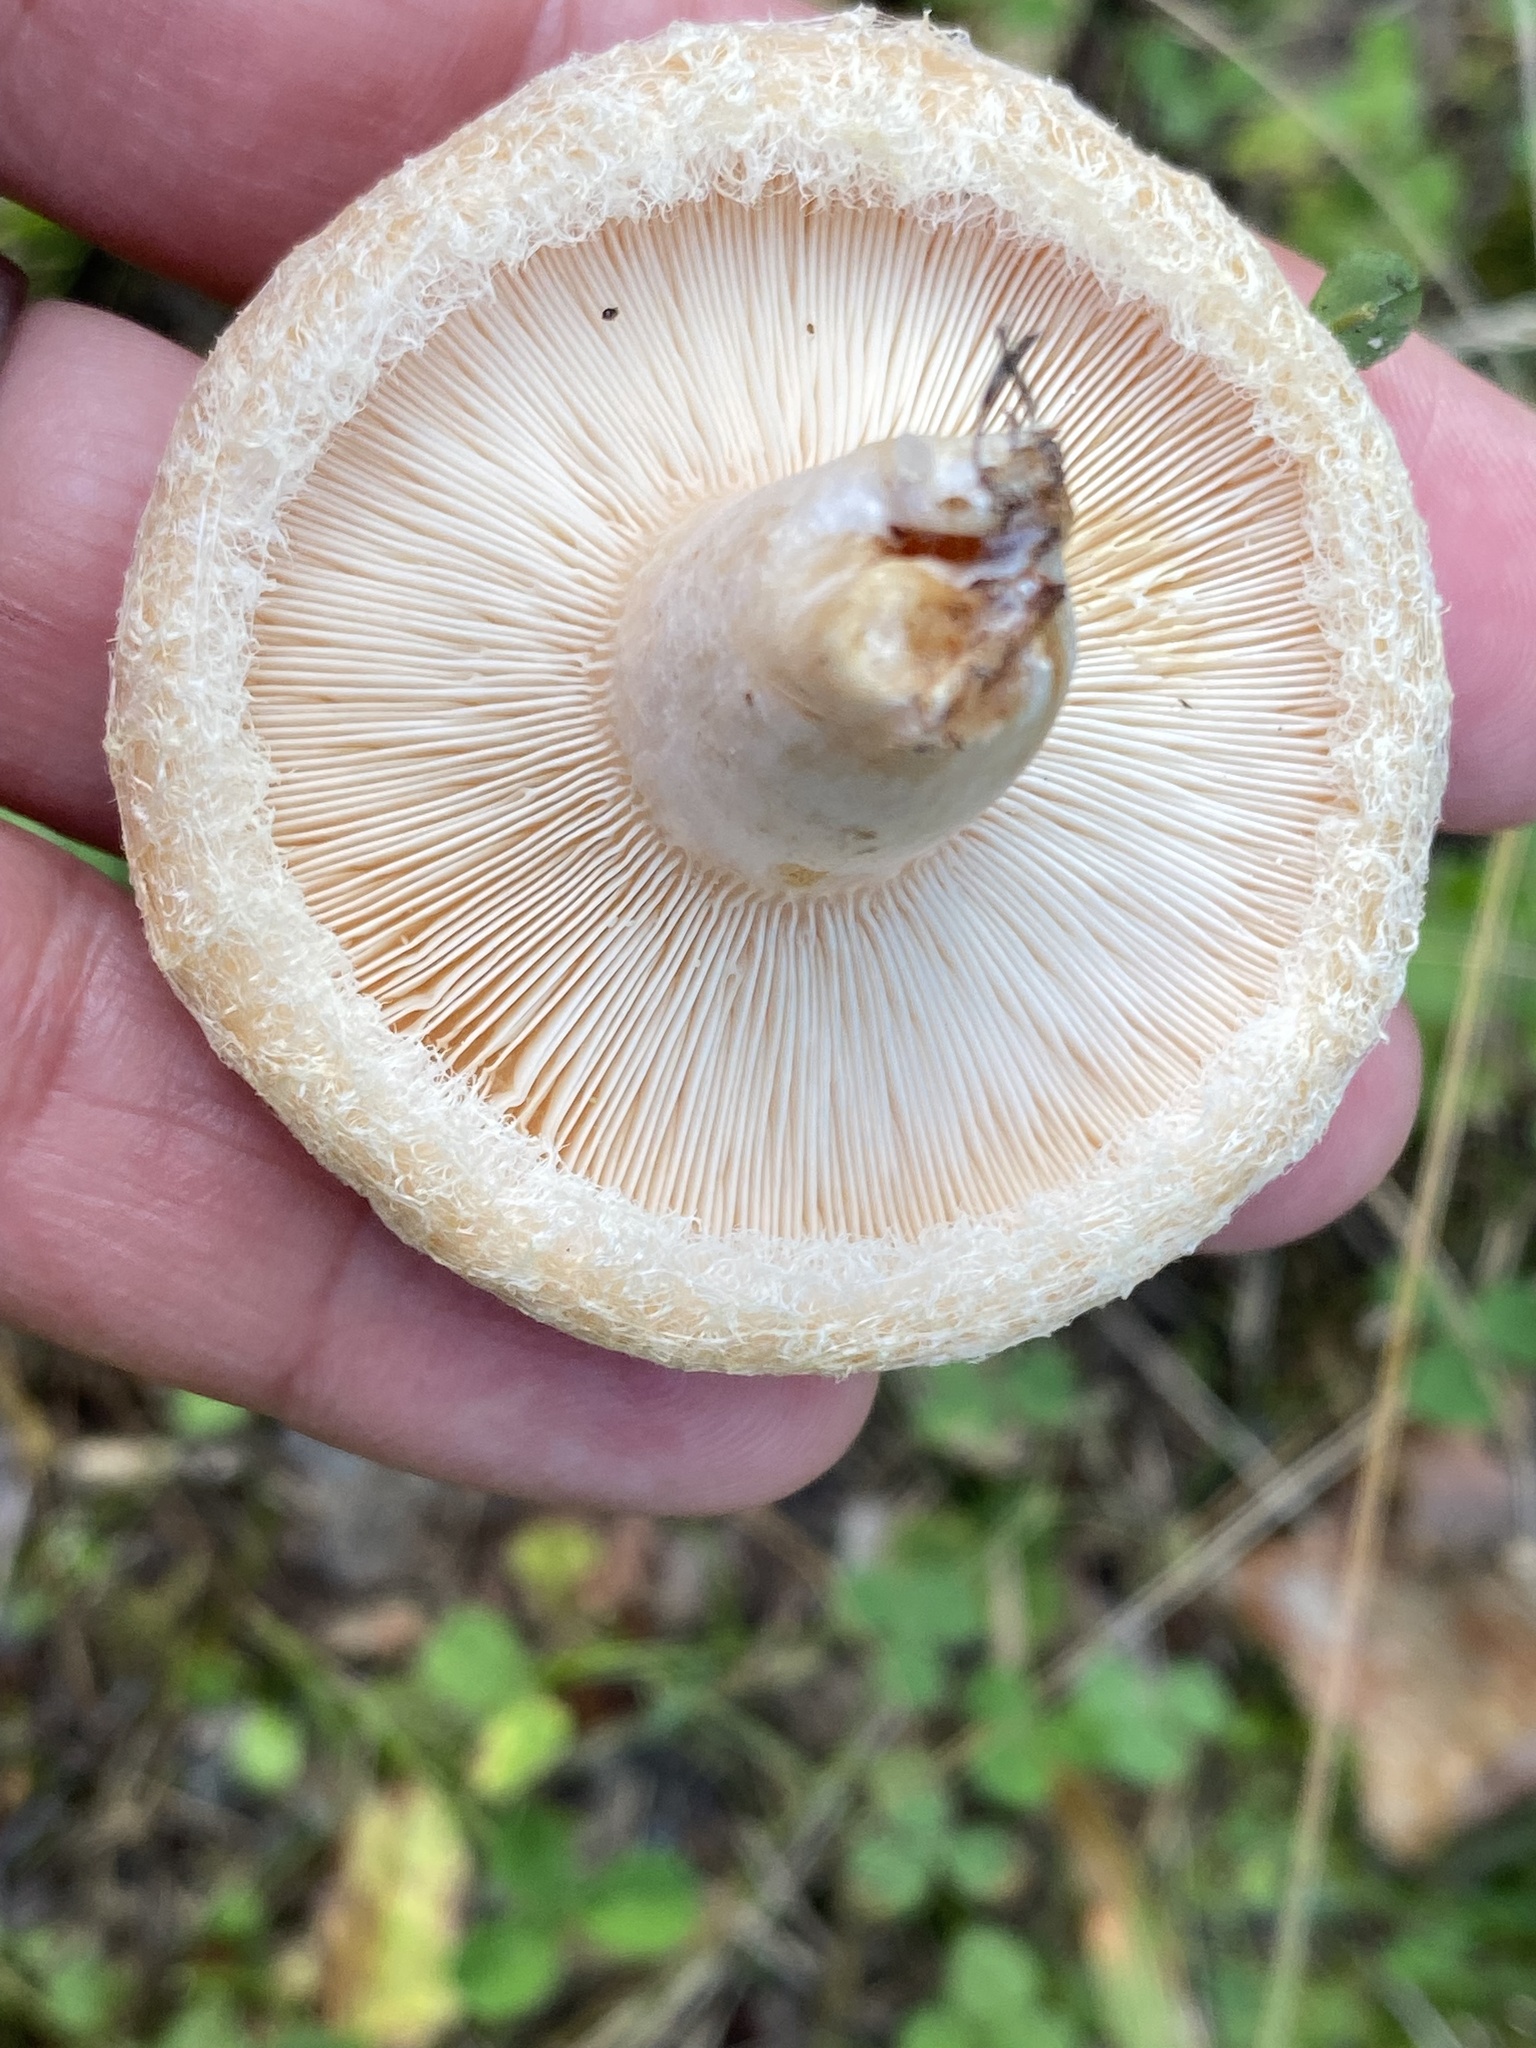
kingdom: Fungi
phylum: Basidiomycota
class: Agaricomycetes
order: Russulales
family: Russulaceae
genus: Lactarius
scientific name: Lactarius pubescens
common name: Bearded milkcap
